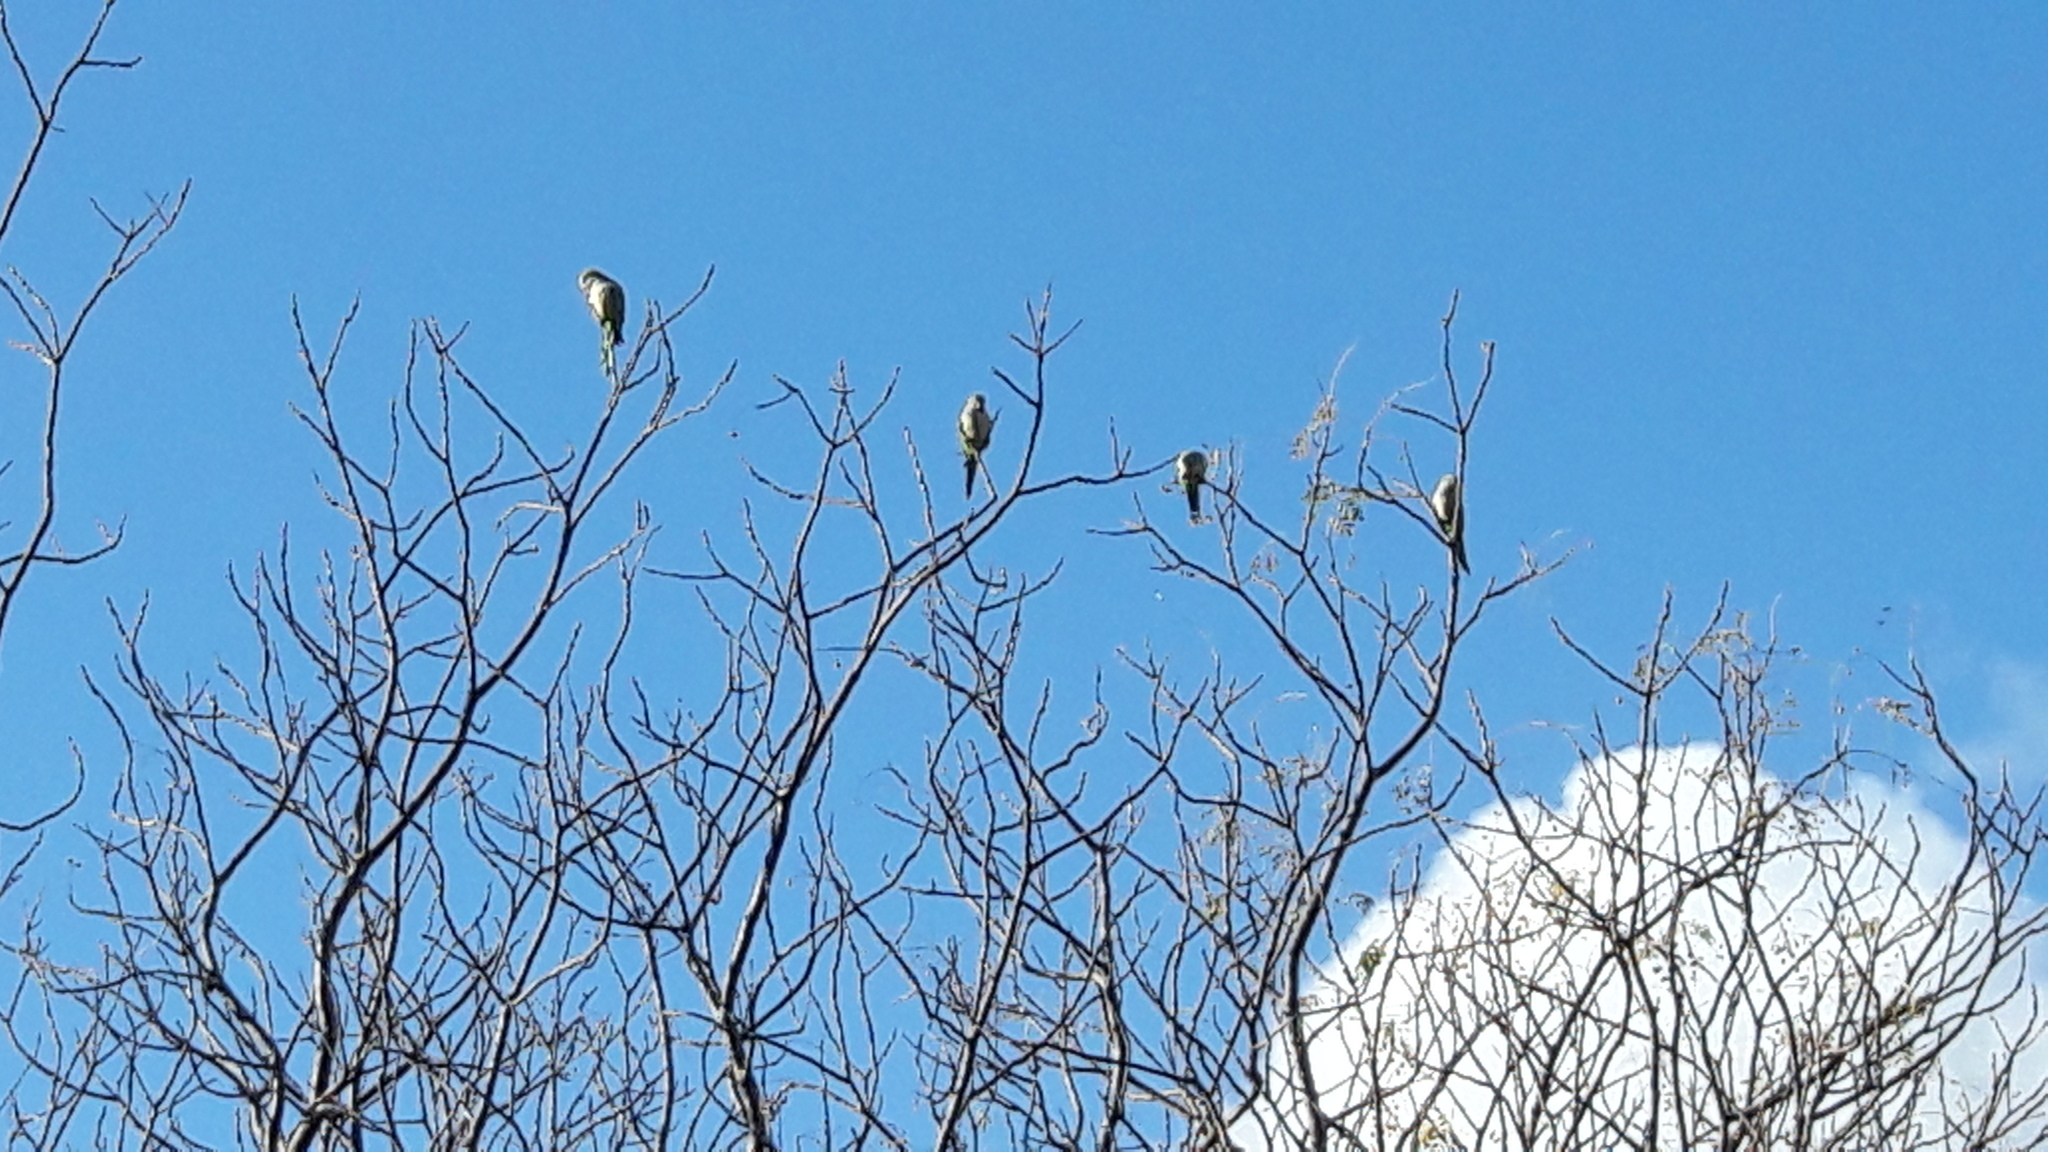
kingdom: Animalia
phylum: Chordata
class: Aves
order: Psittaciformes
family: Psittacidae
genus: Myiopsitta
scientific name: Myiopsitta monachus
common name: Monk parakeet
